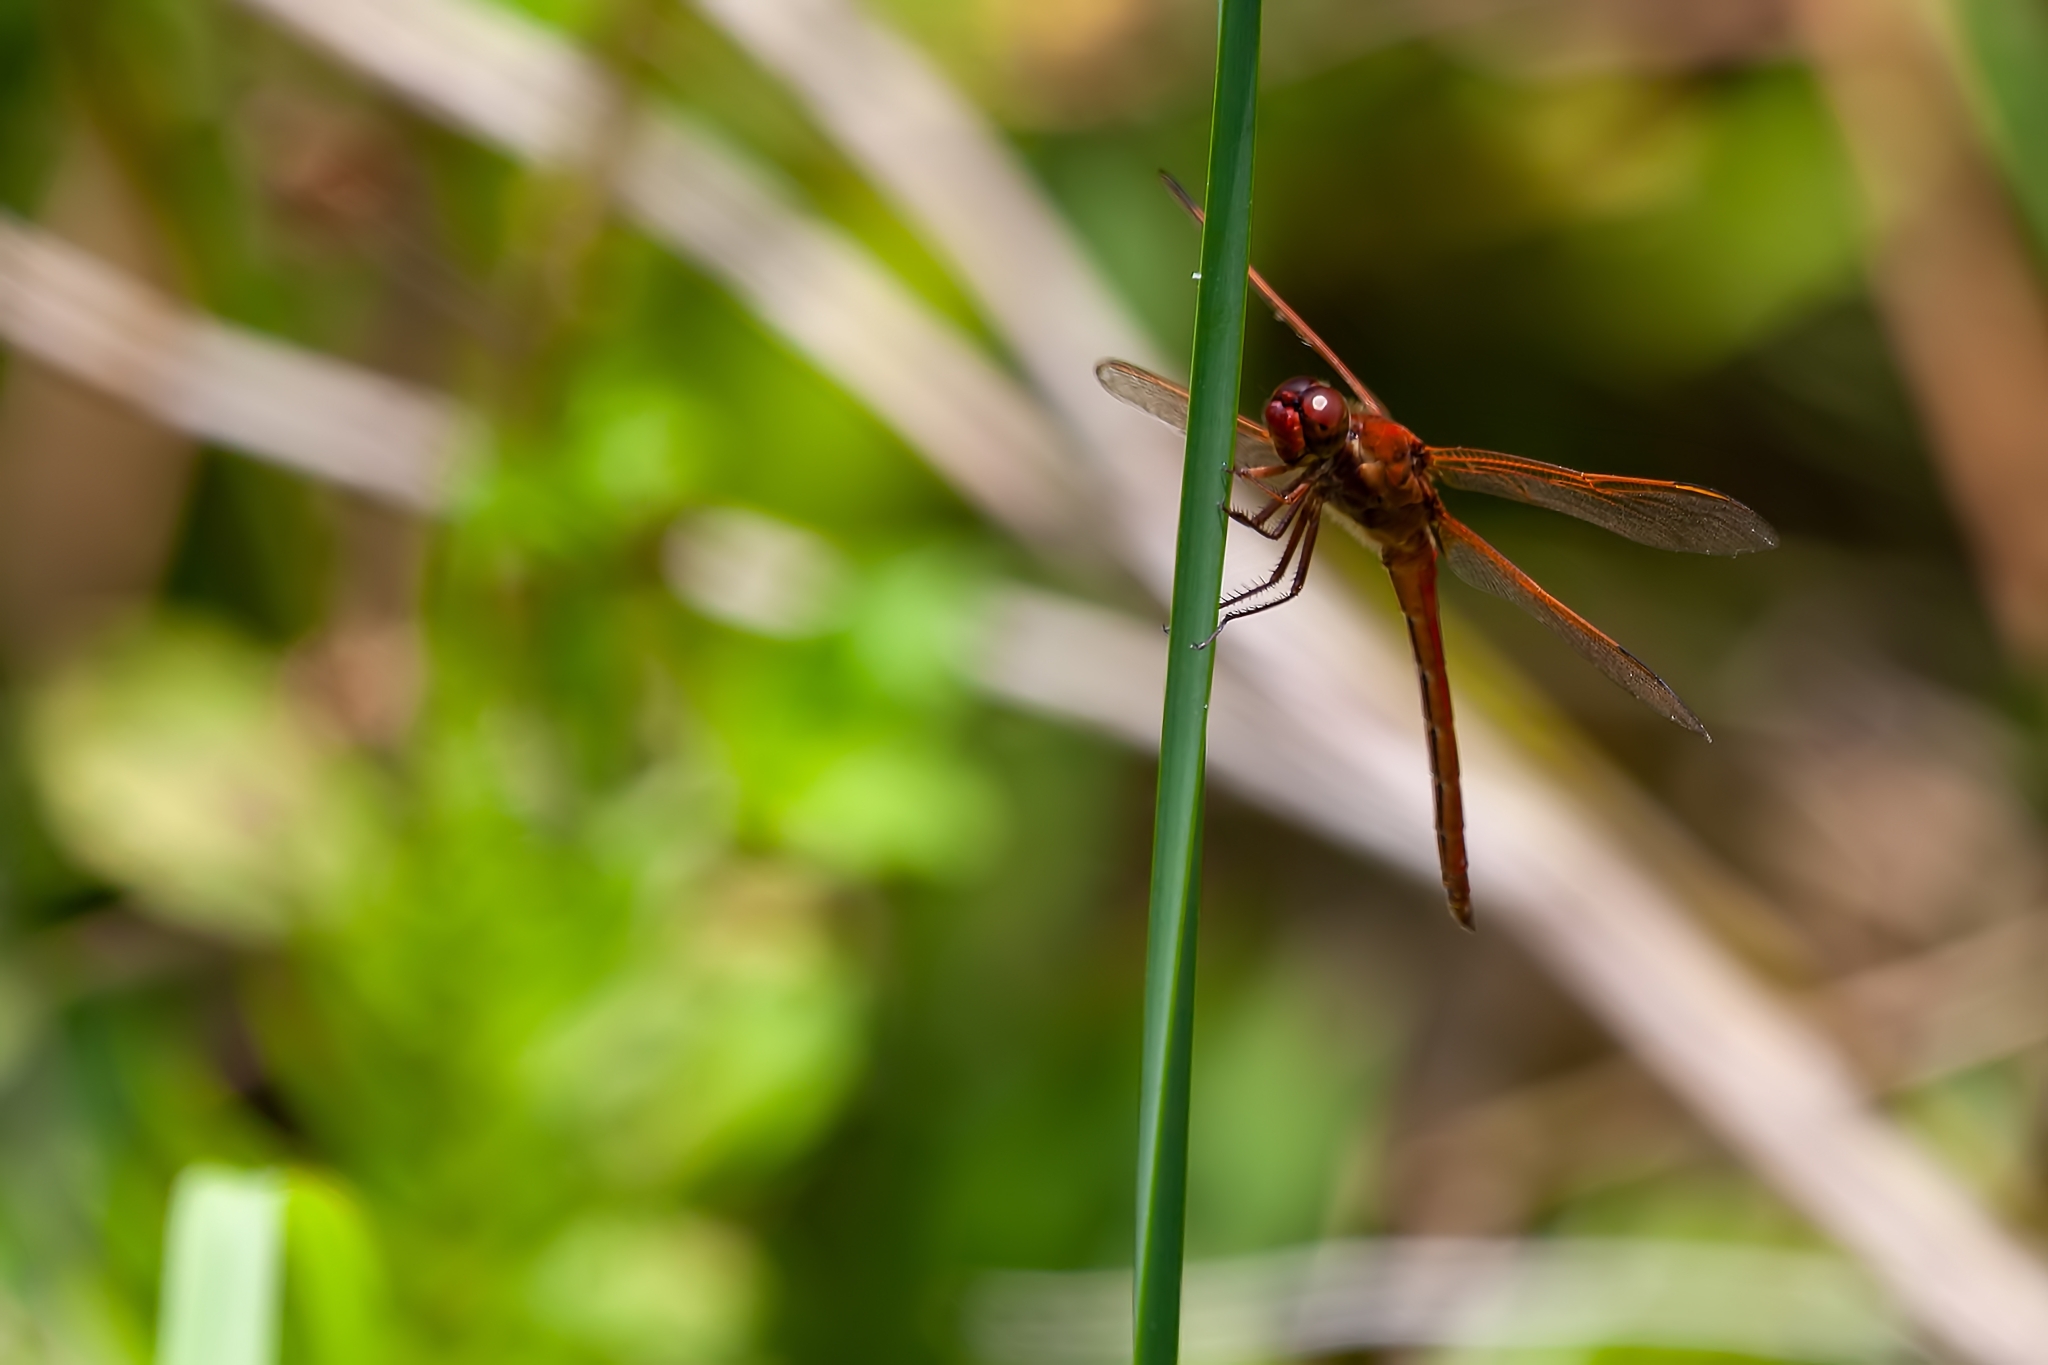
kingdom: Animalia
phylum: Arthropoda
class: Insecta
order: Odonata
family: Libellulidae
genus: Libellula
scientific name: Libellula needhami
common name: Needham's skimmer
